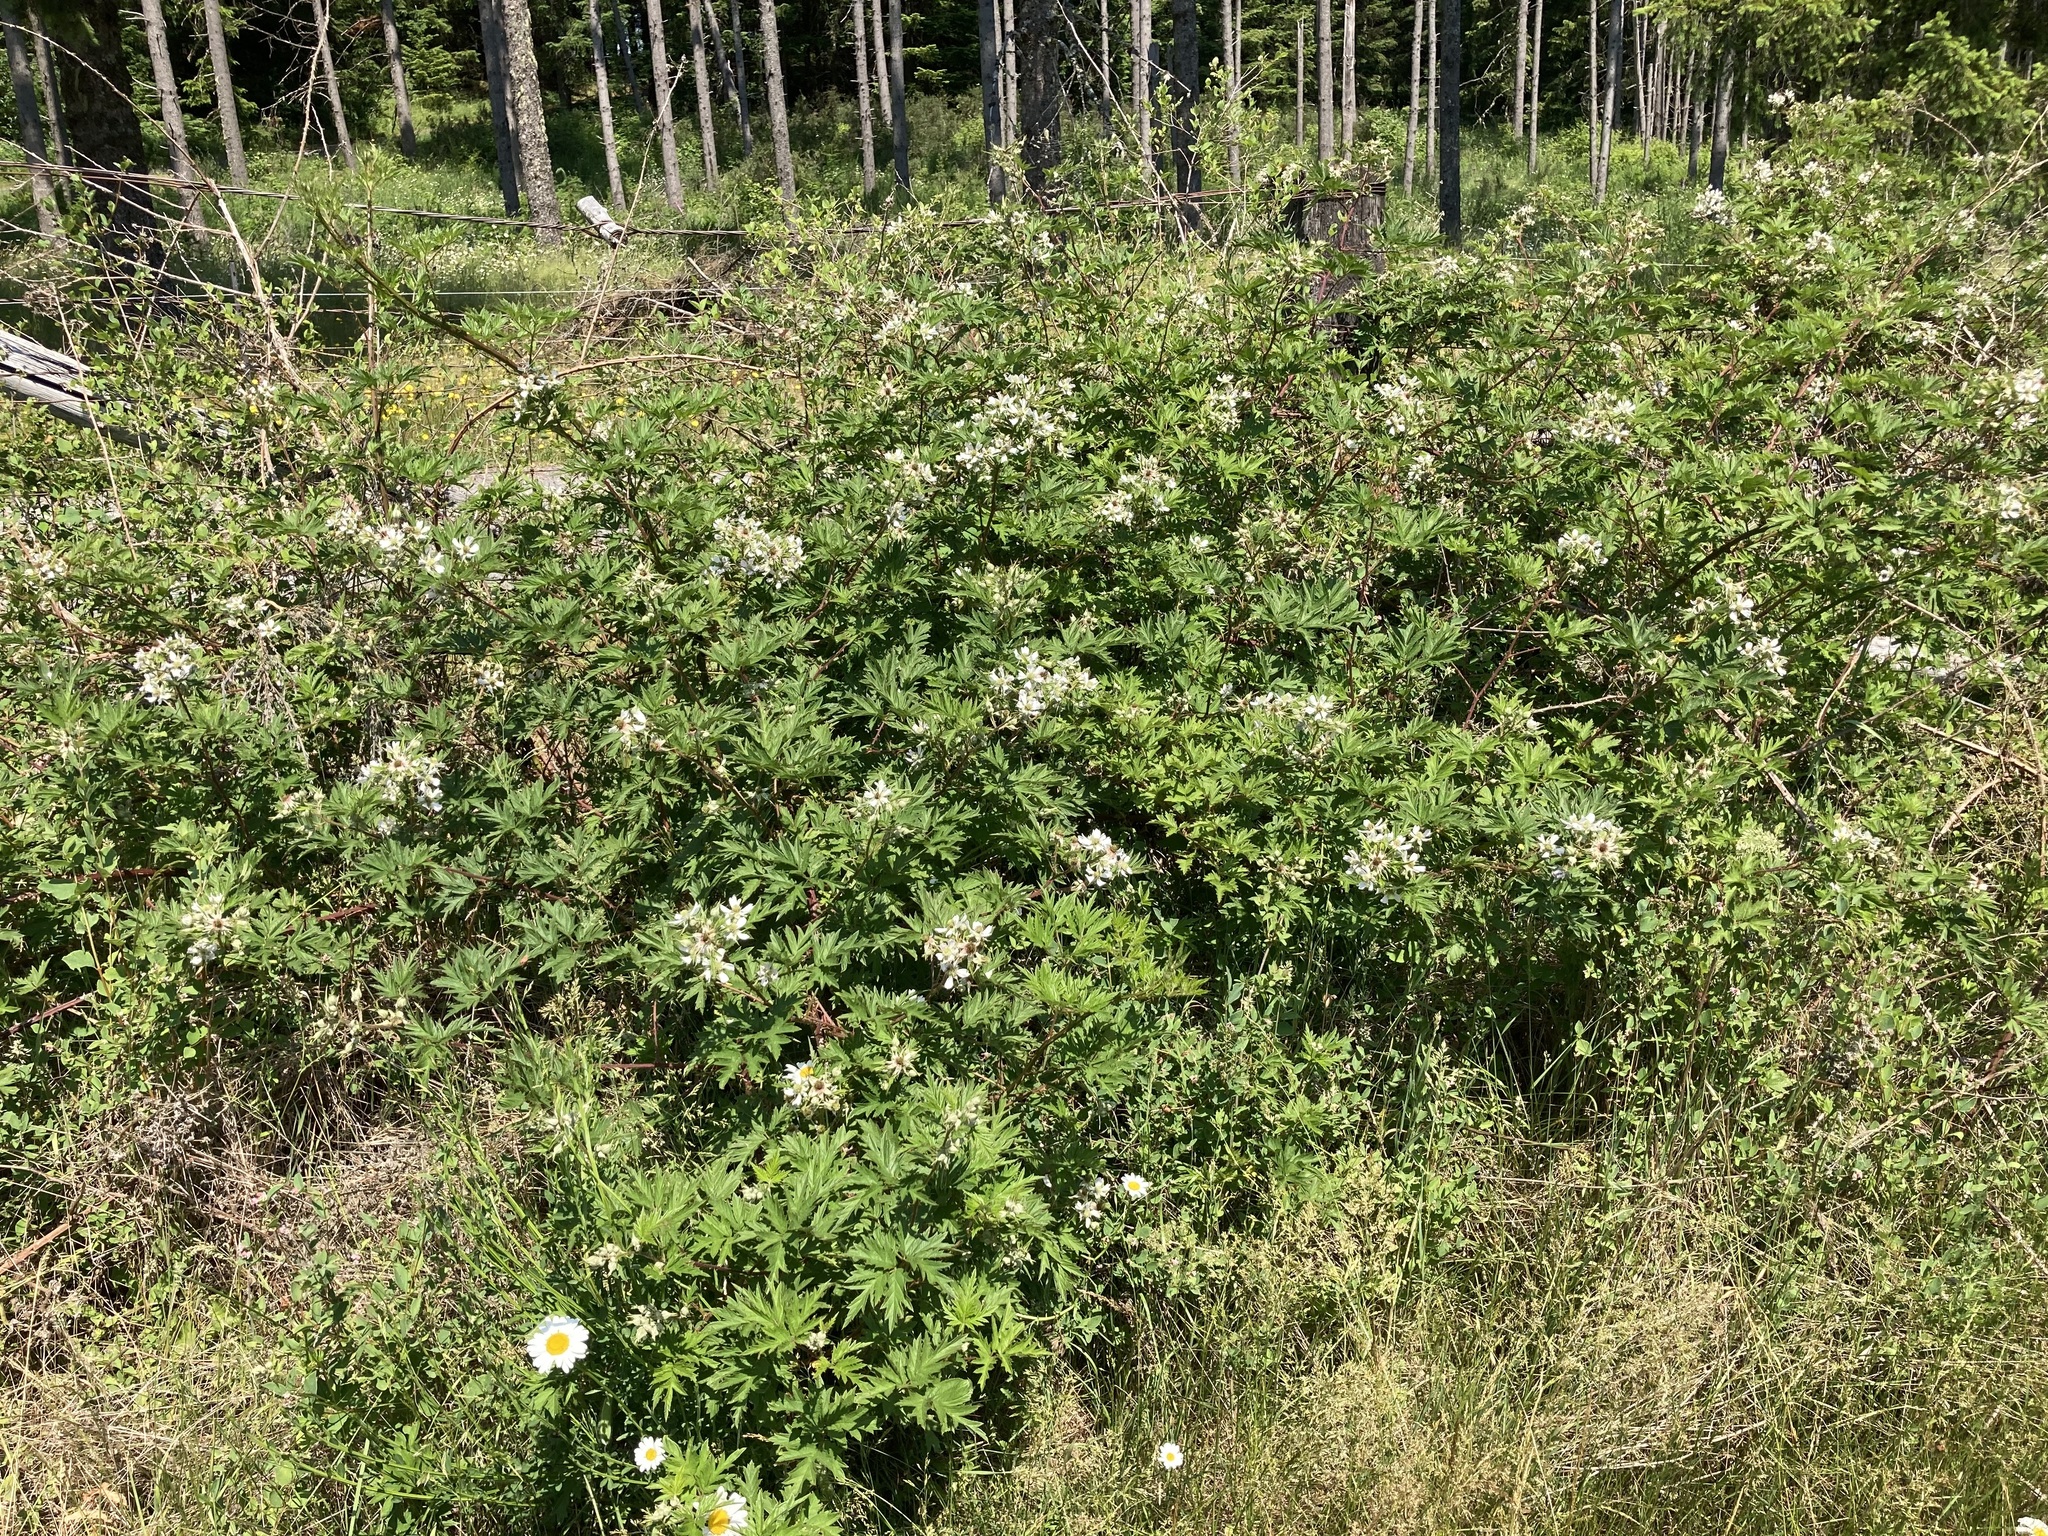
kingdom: Plantae
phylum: Tracheophyta
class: Magnoliopsida
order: Rosales
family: Rosaceae
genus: Rubus
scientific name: Rubus laciniatus
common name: Evergreen blackberry
